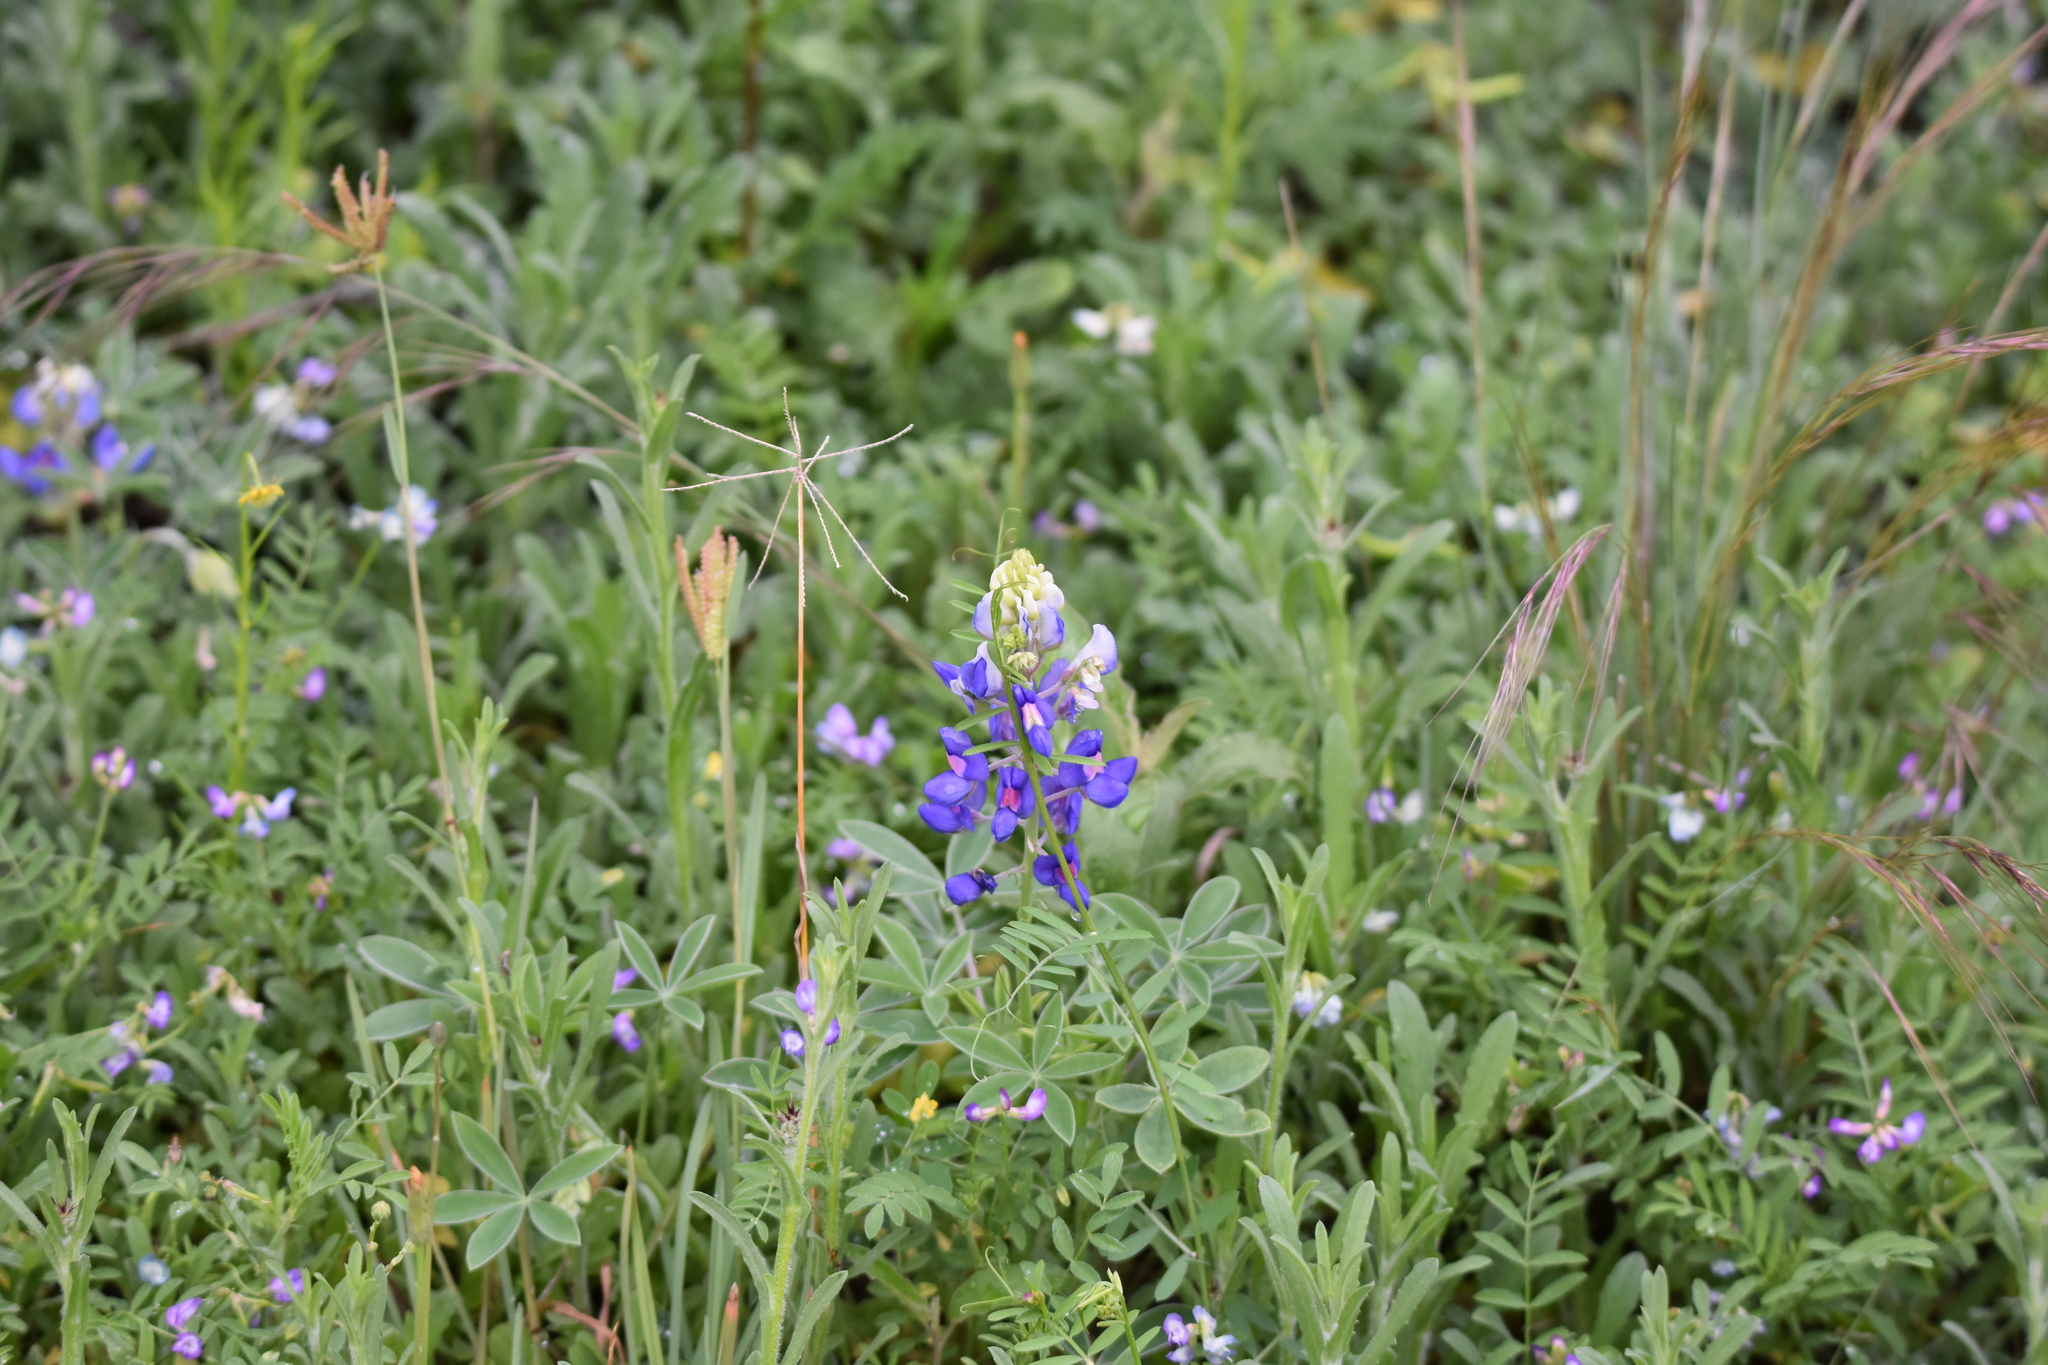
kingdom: Plantae
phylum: Tracheophyta
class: Magnoliopsida
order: Fabales
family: Fabaceae
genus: Lupinus
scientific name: Lupinus texensis
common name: Texas bluebonnet
